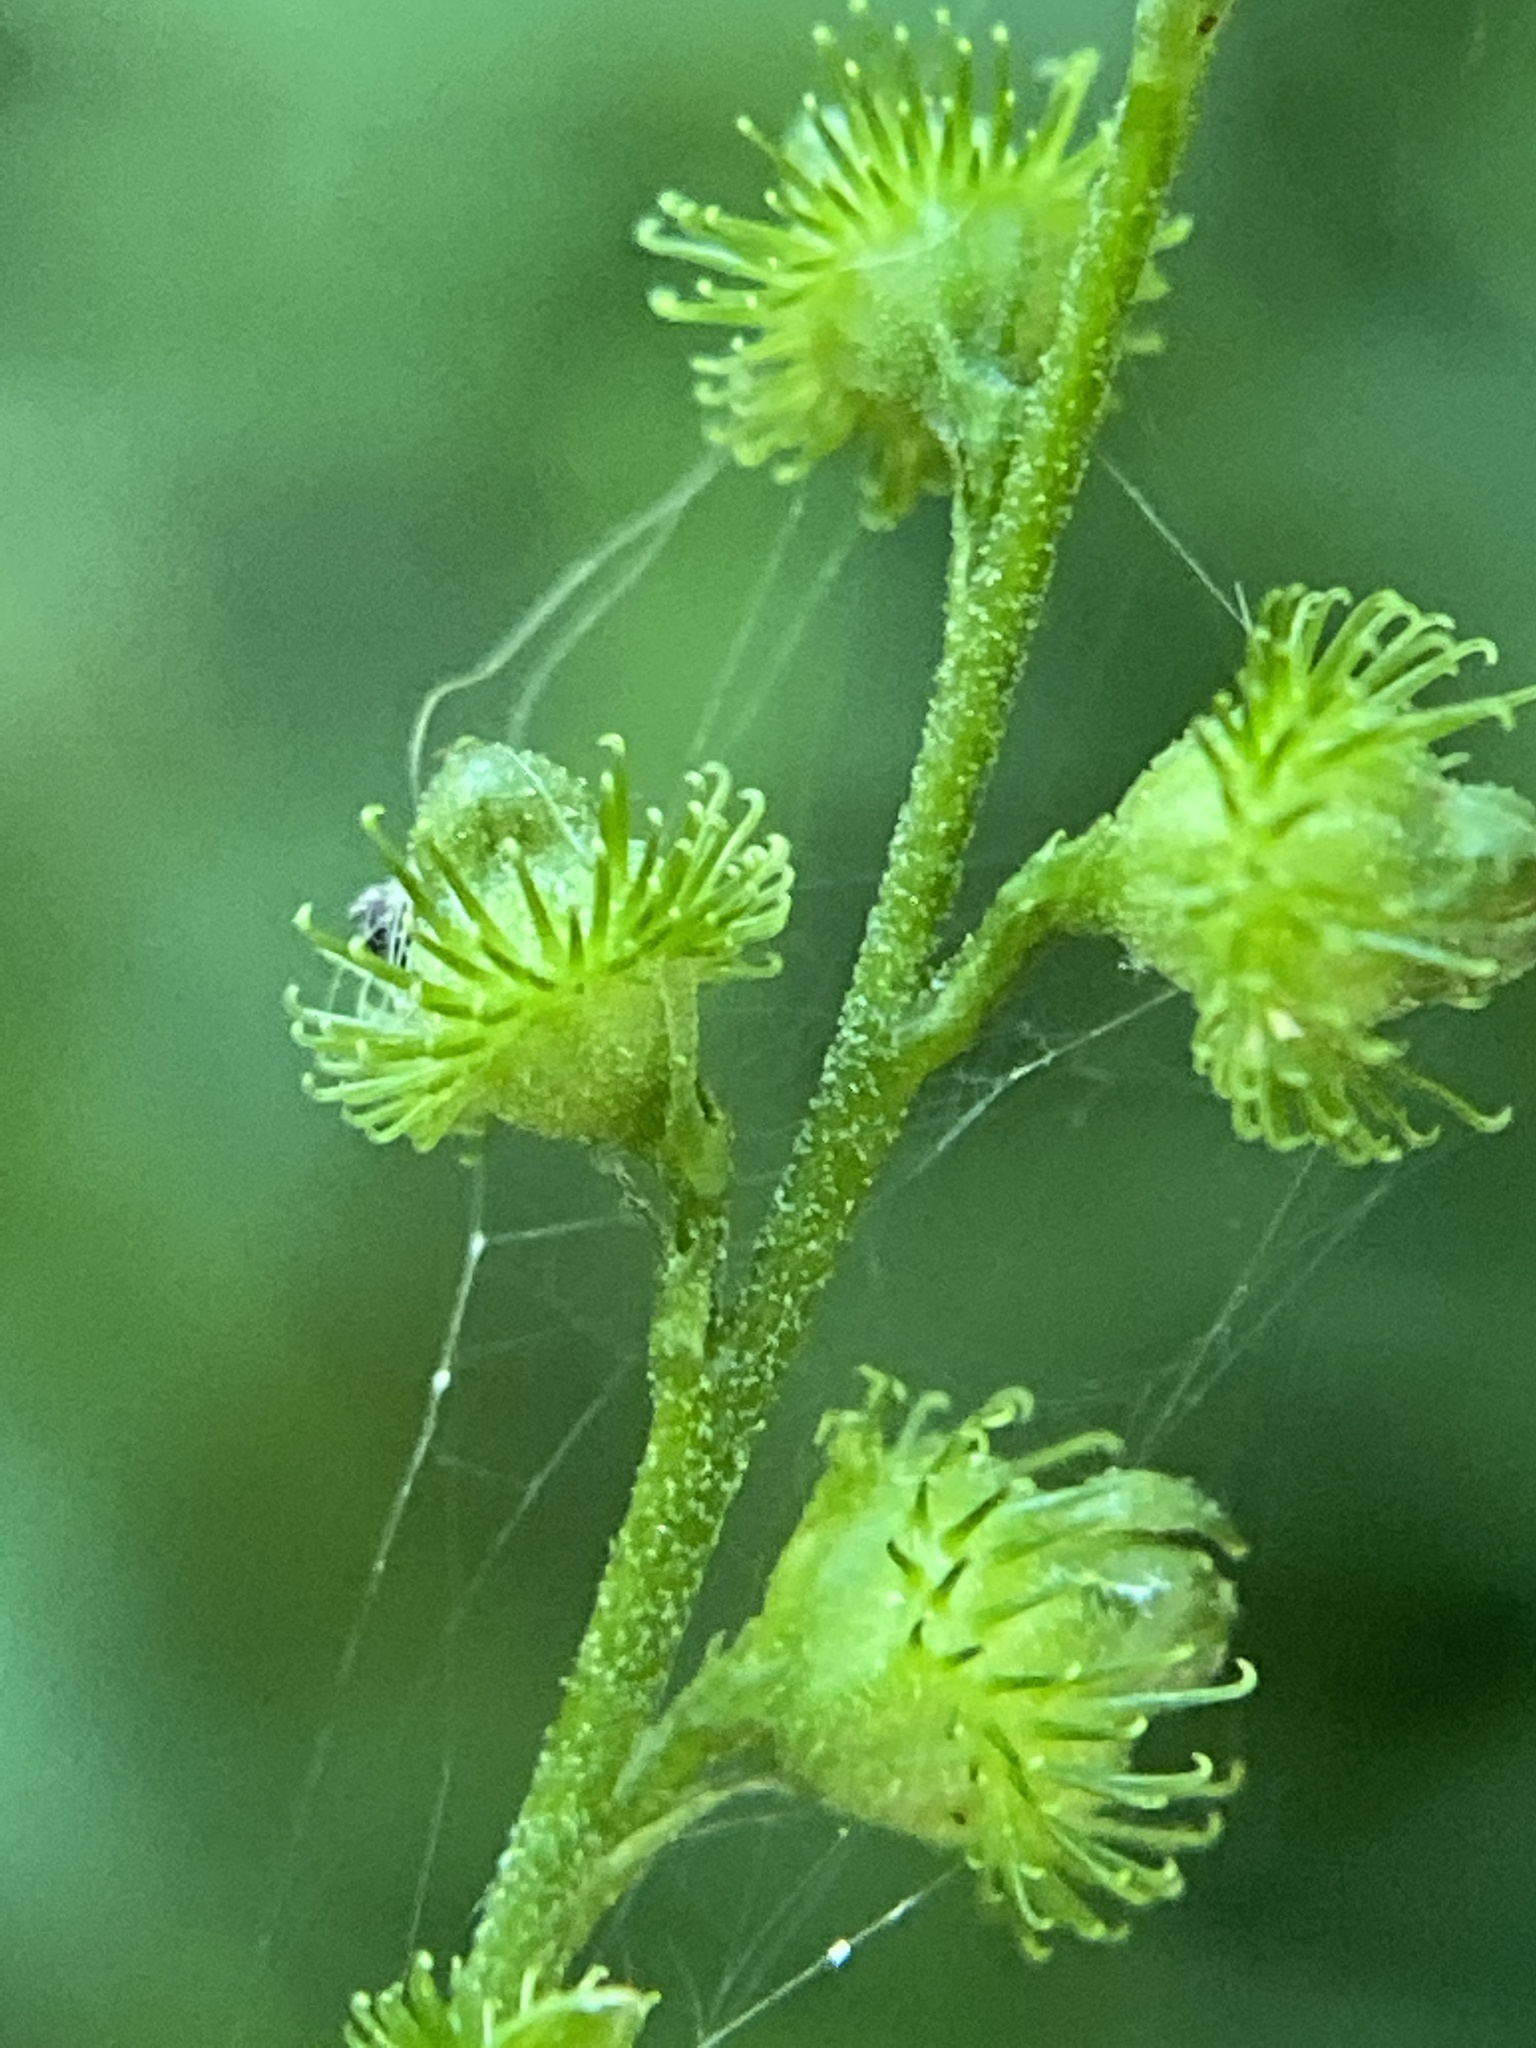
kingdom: Plantae
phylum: Tracheophyta
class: Magnoliopsida
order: Rosales
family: Rosaceae
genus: Agrimonia
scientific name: Agrimonia gryposepala
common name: Common agrimony
